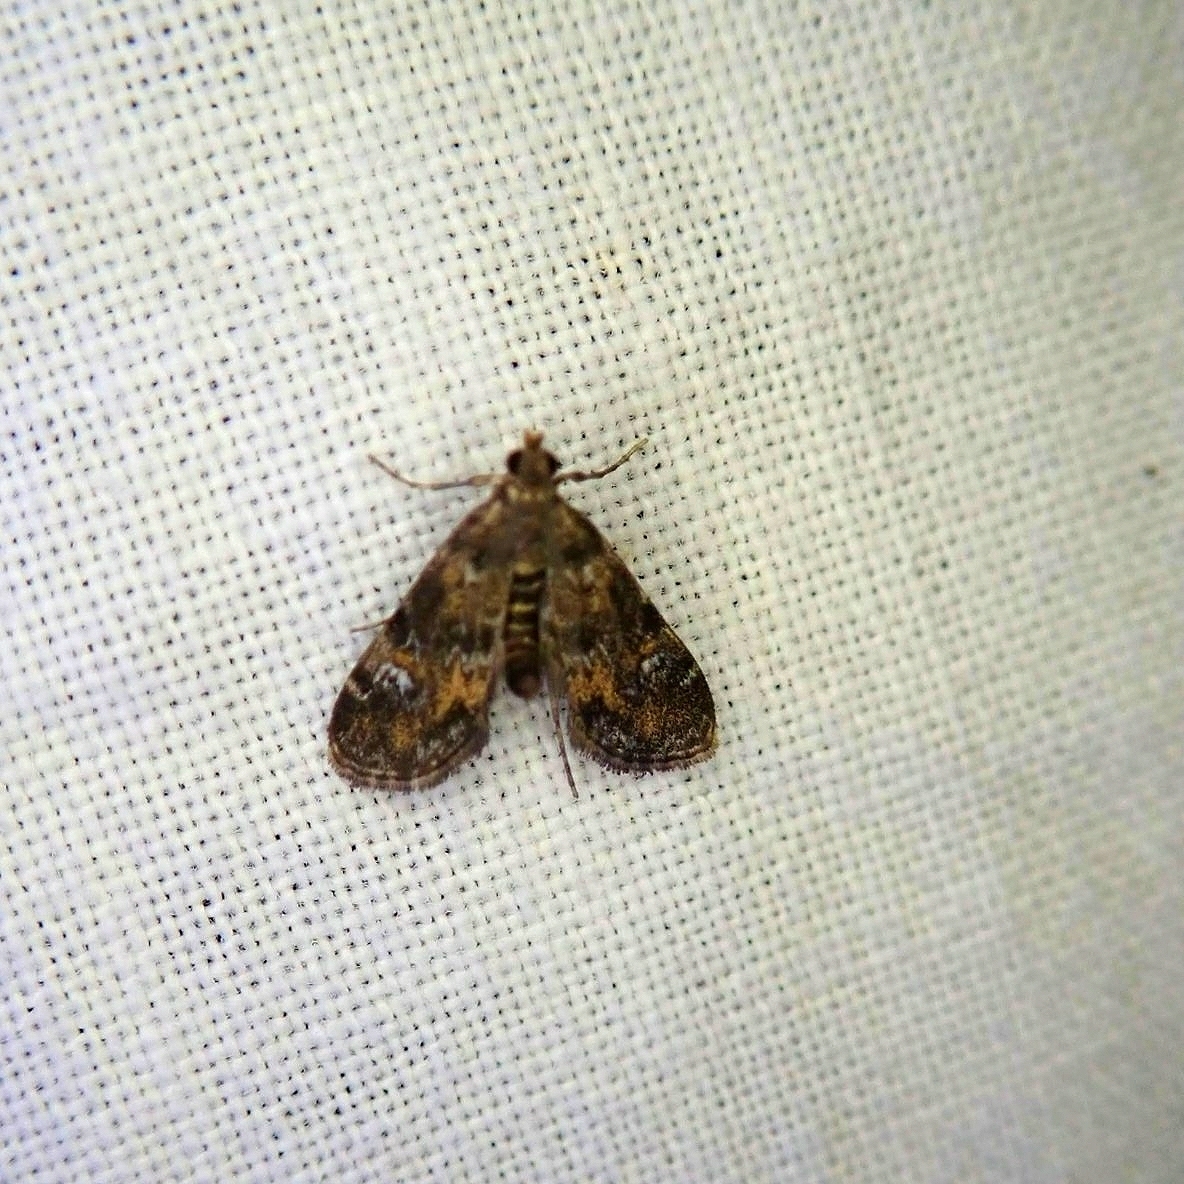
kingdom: Animalia
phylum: Arthropoda
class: Insecta
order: Lepidoptera
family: Crambidae
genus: Elophila
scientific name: Elophila obliteralis
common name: Waterlily leafcutter moth
